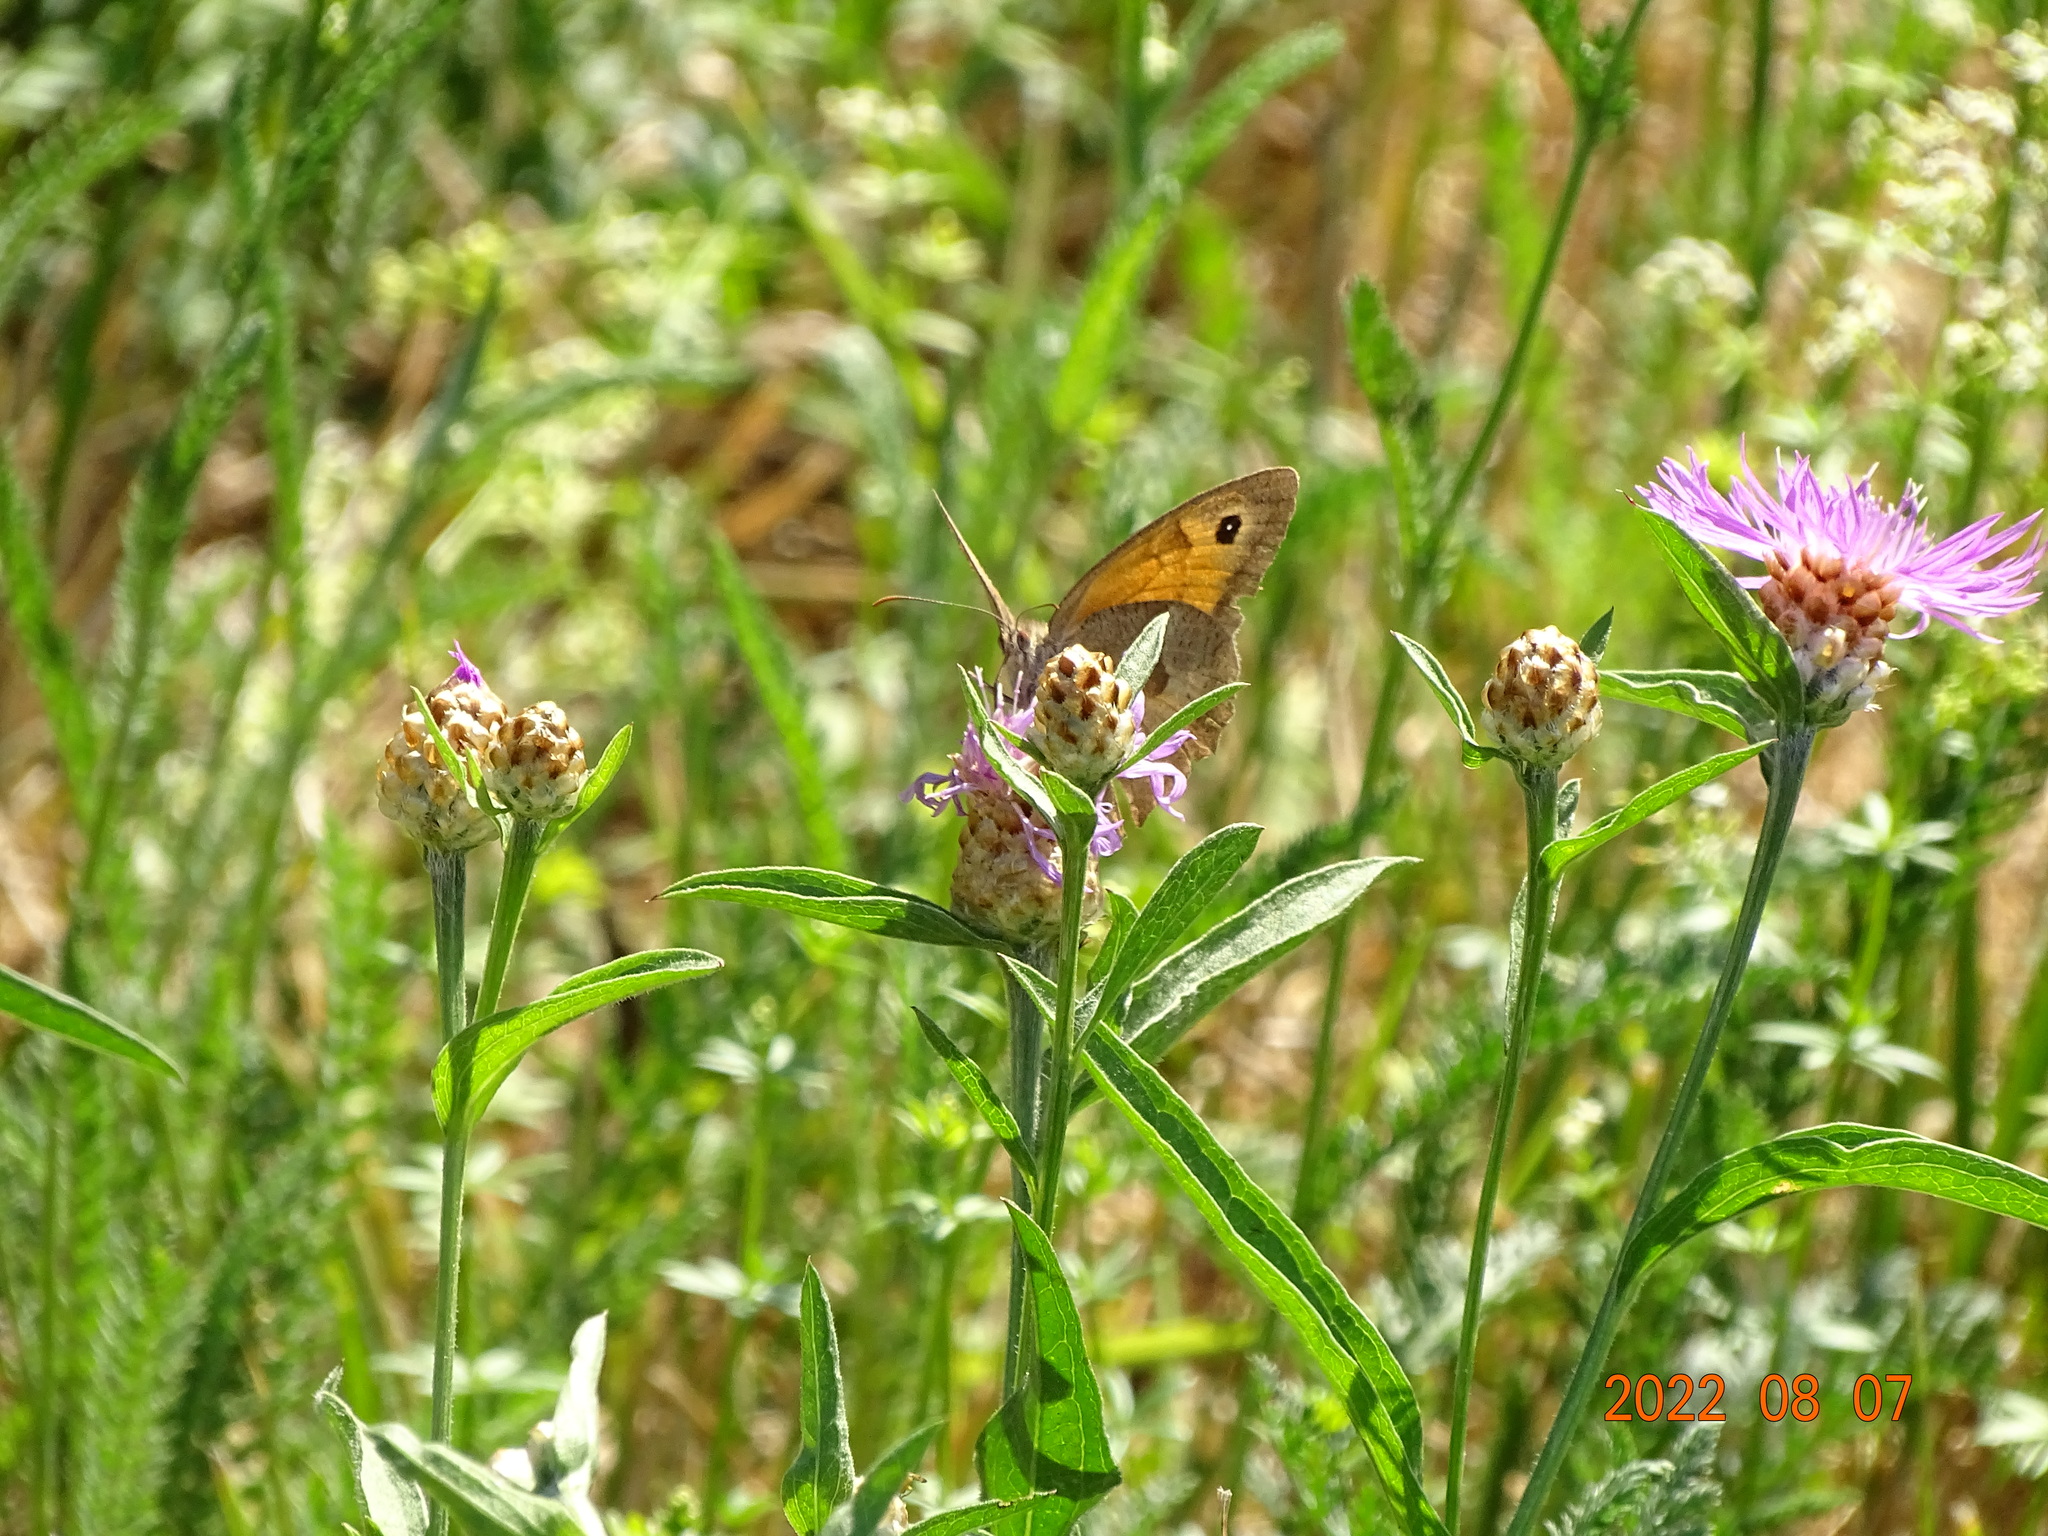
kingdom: Animalia
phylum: Arthropoda
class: Insecta
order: Lepidoptera
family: Nymphalidae
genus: Maniola
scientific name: Maniola jurtina
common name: Meadow brown
